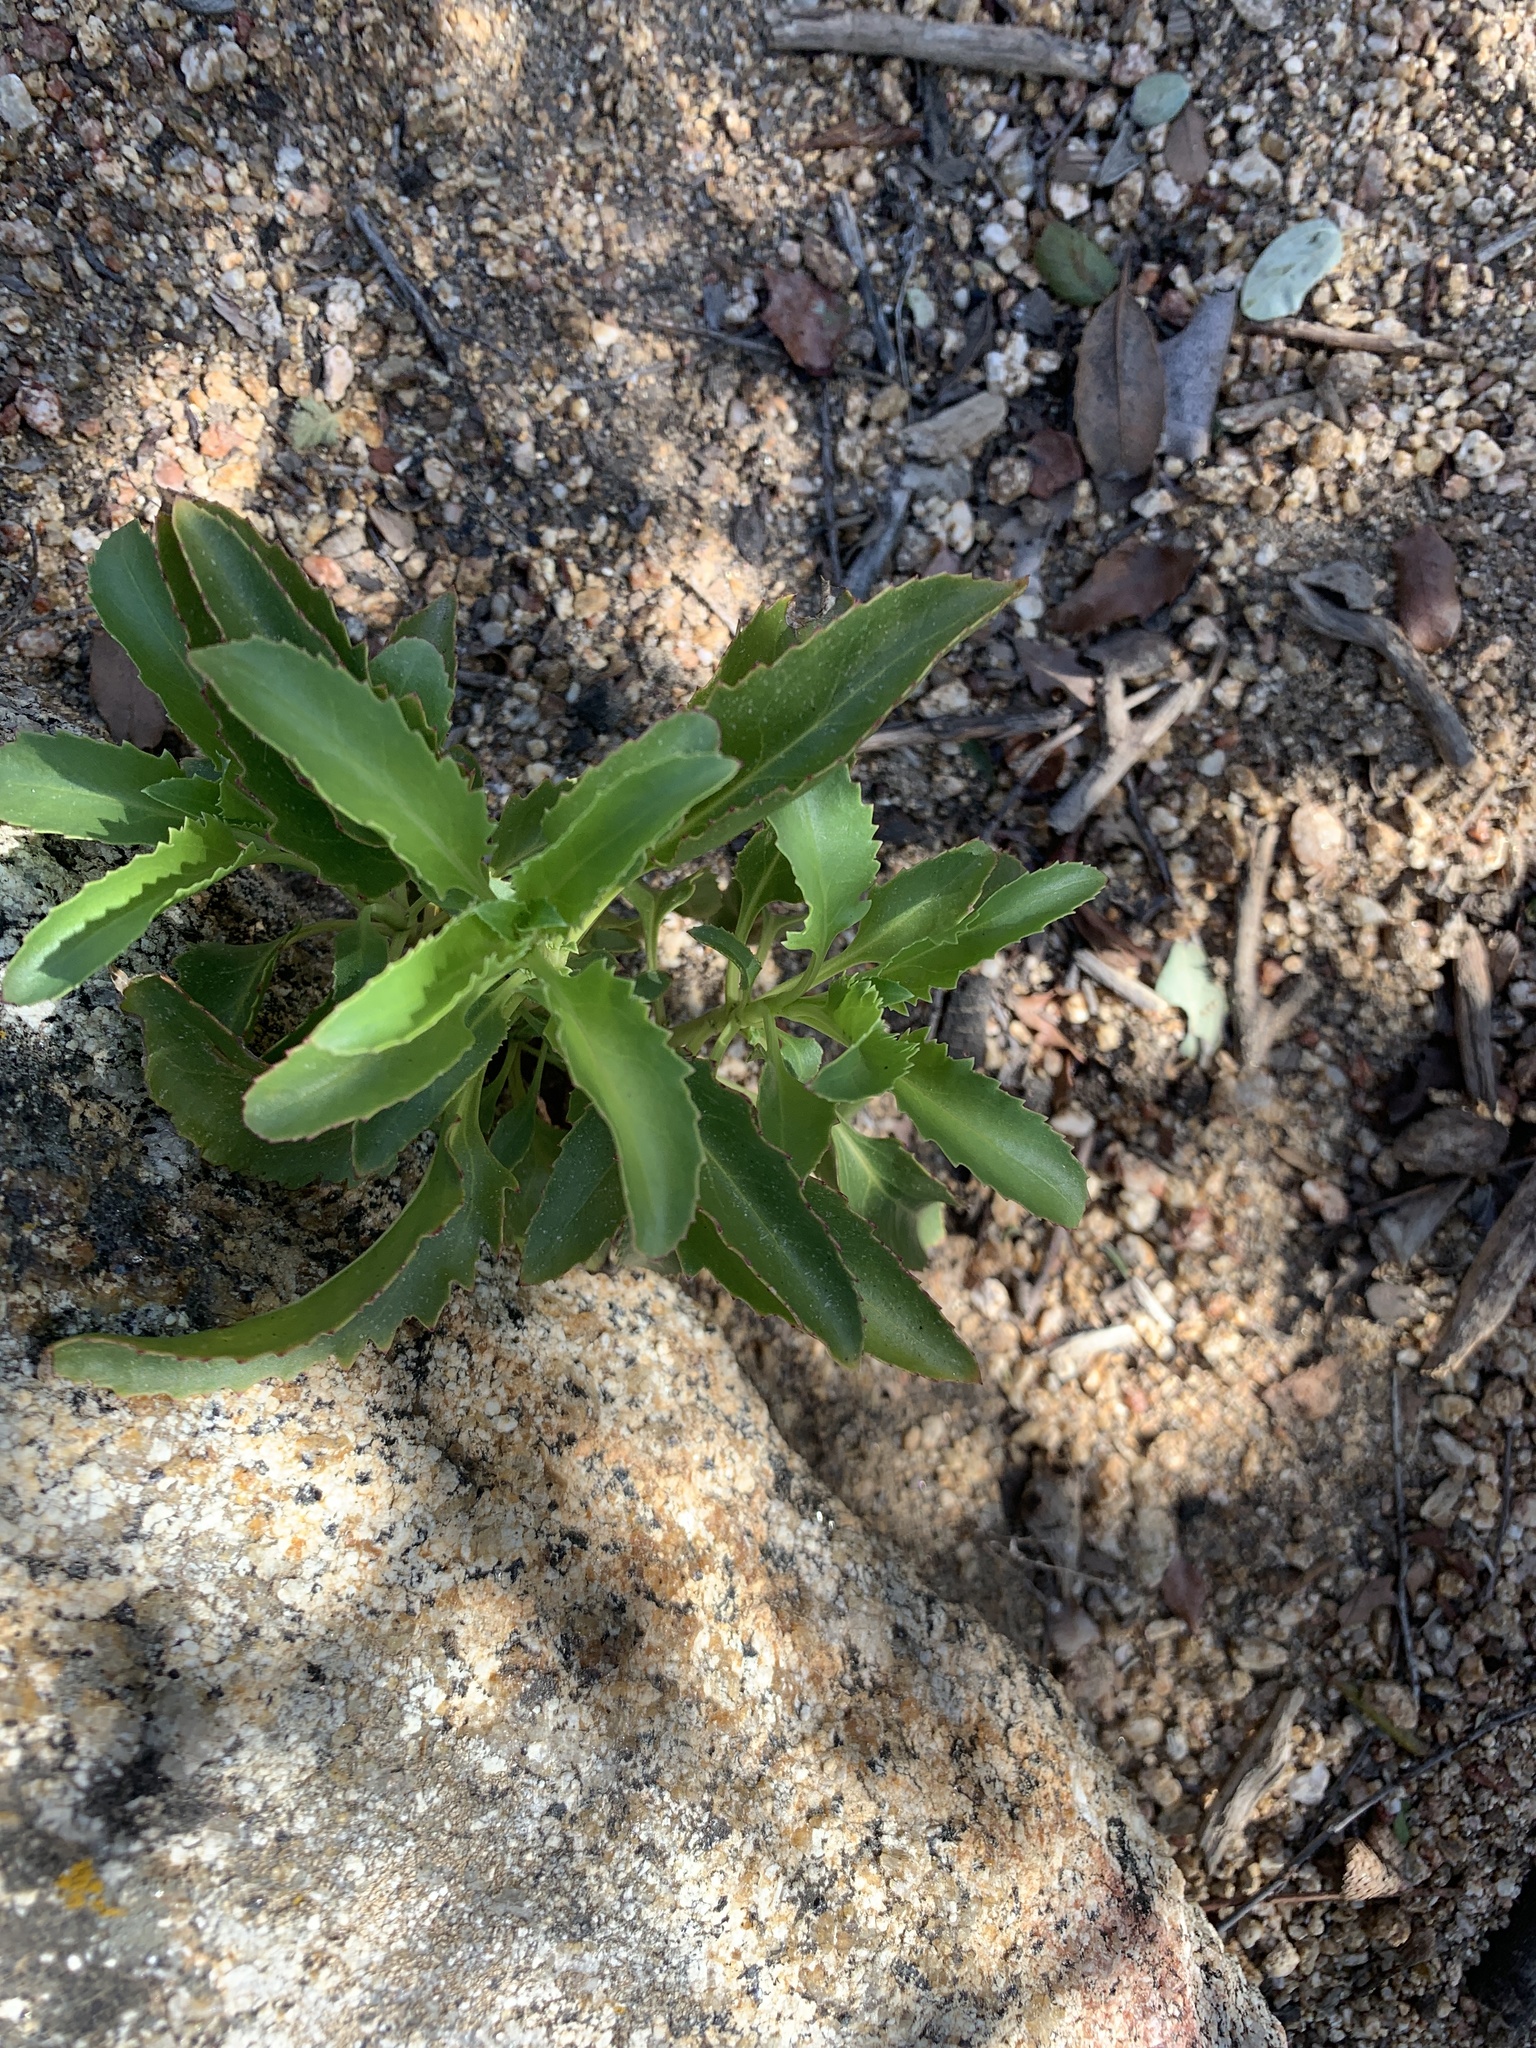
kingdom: Plantae
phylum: Tracheophyta
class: Magnoliopsida
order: Lamiales
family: Plantaginaceae
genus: Penstemon
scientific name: Penstemon spectabilis
